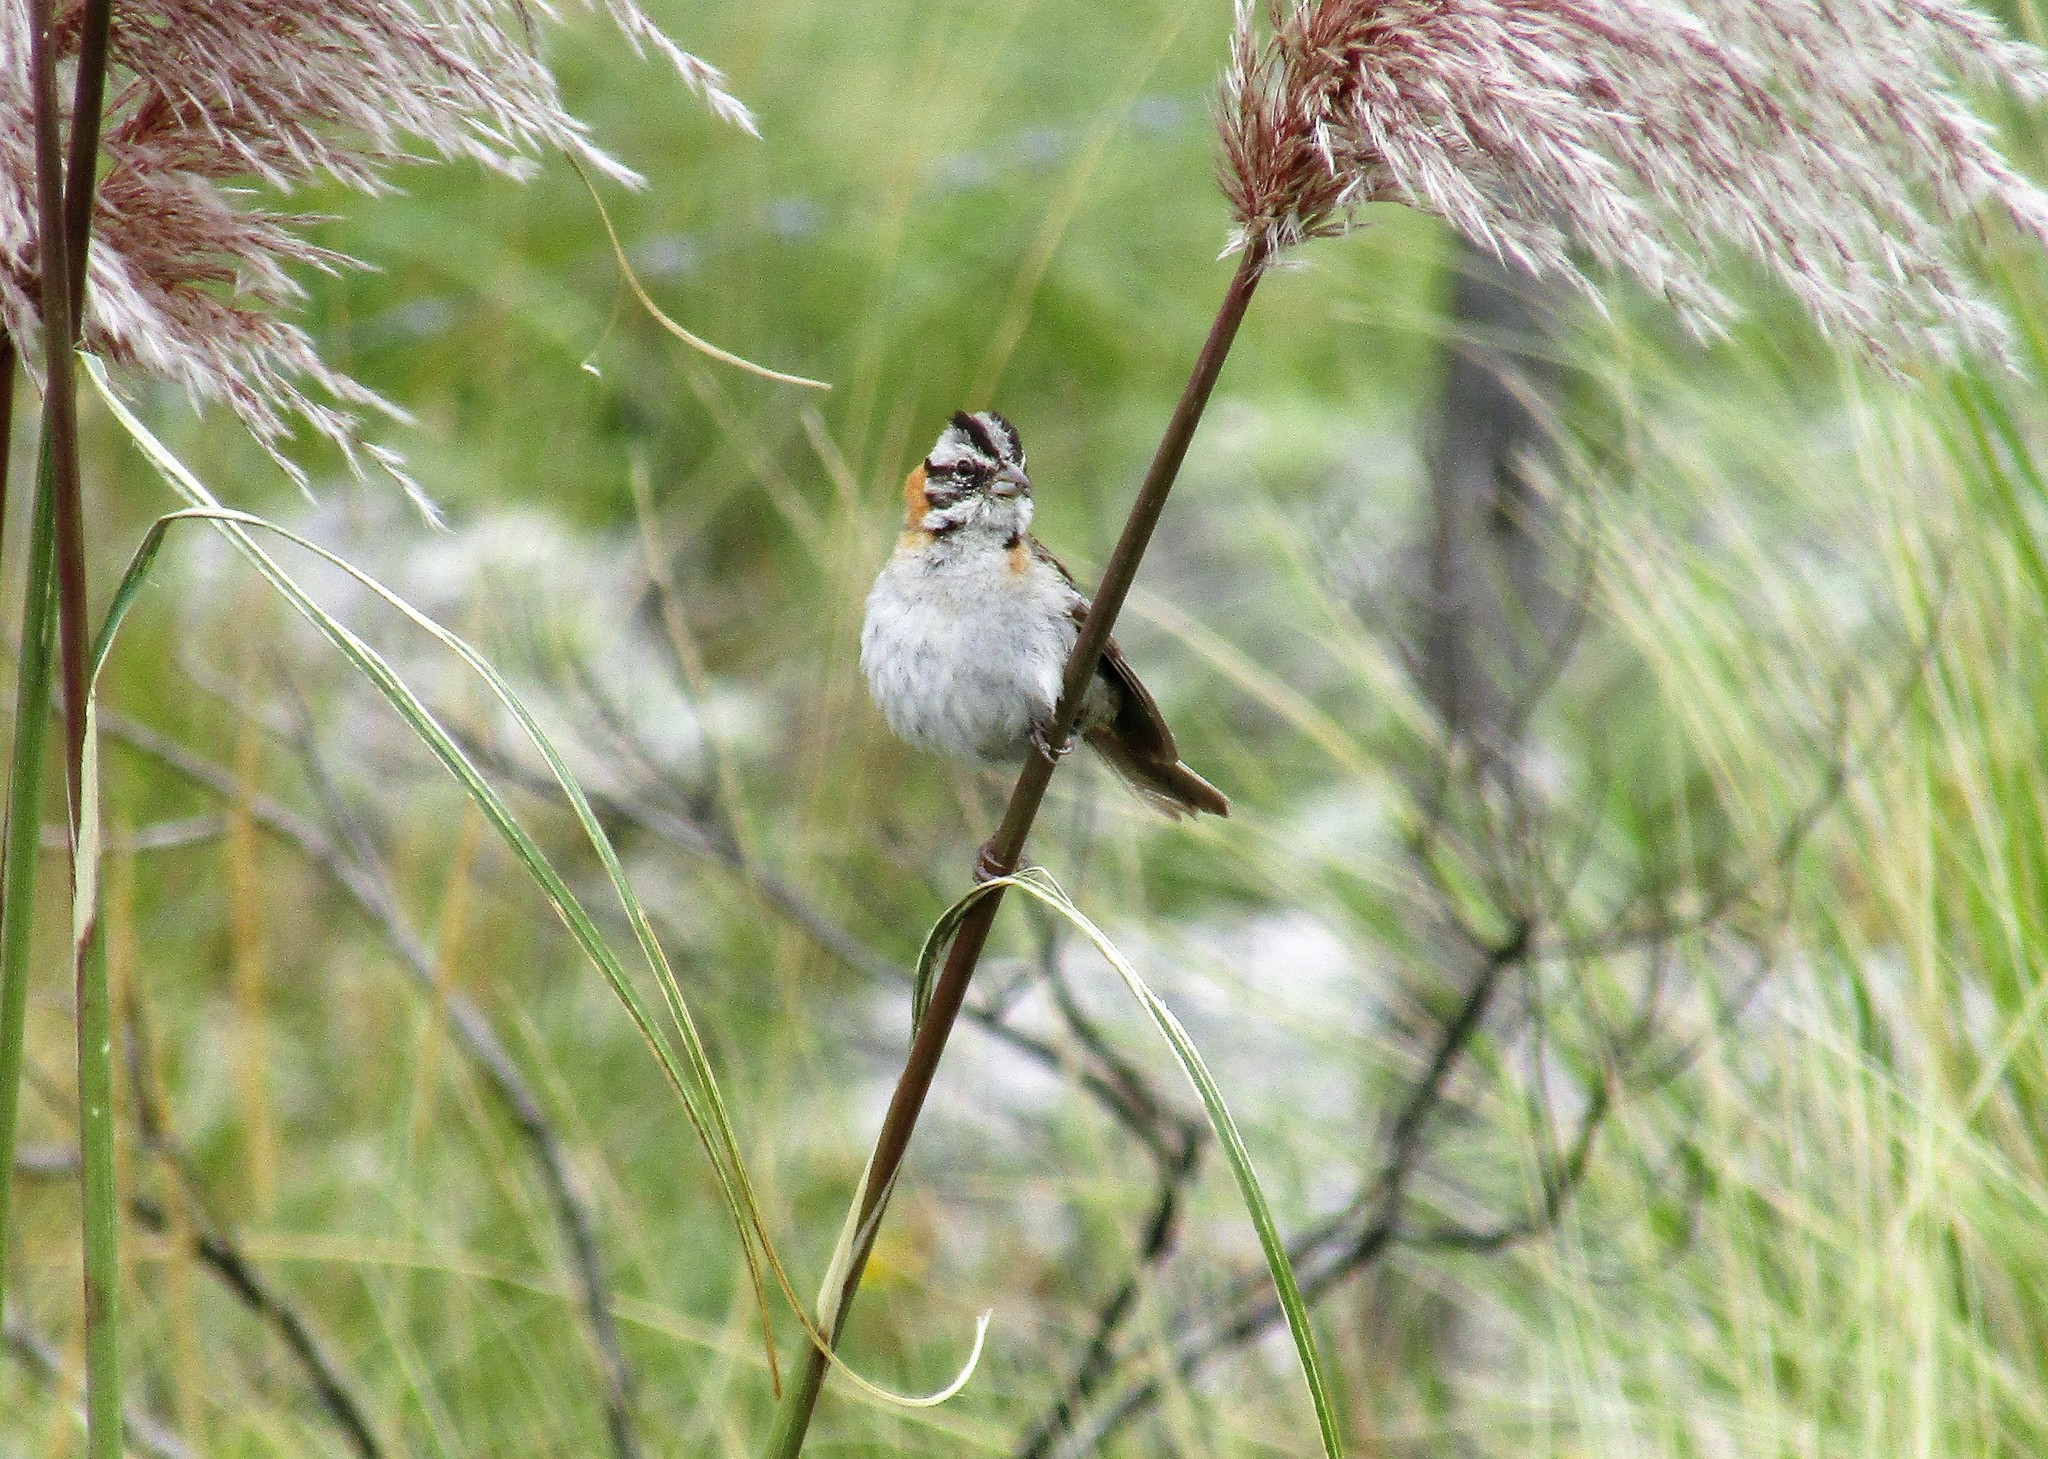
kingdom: Animalia
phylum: Chordata
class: Aves
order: Passeriformes
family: Passerellidae
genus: Zonotrichia
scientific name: Zonotrichia capensis
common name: Rufous-collared sparrow
